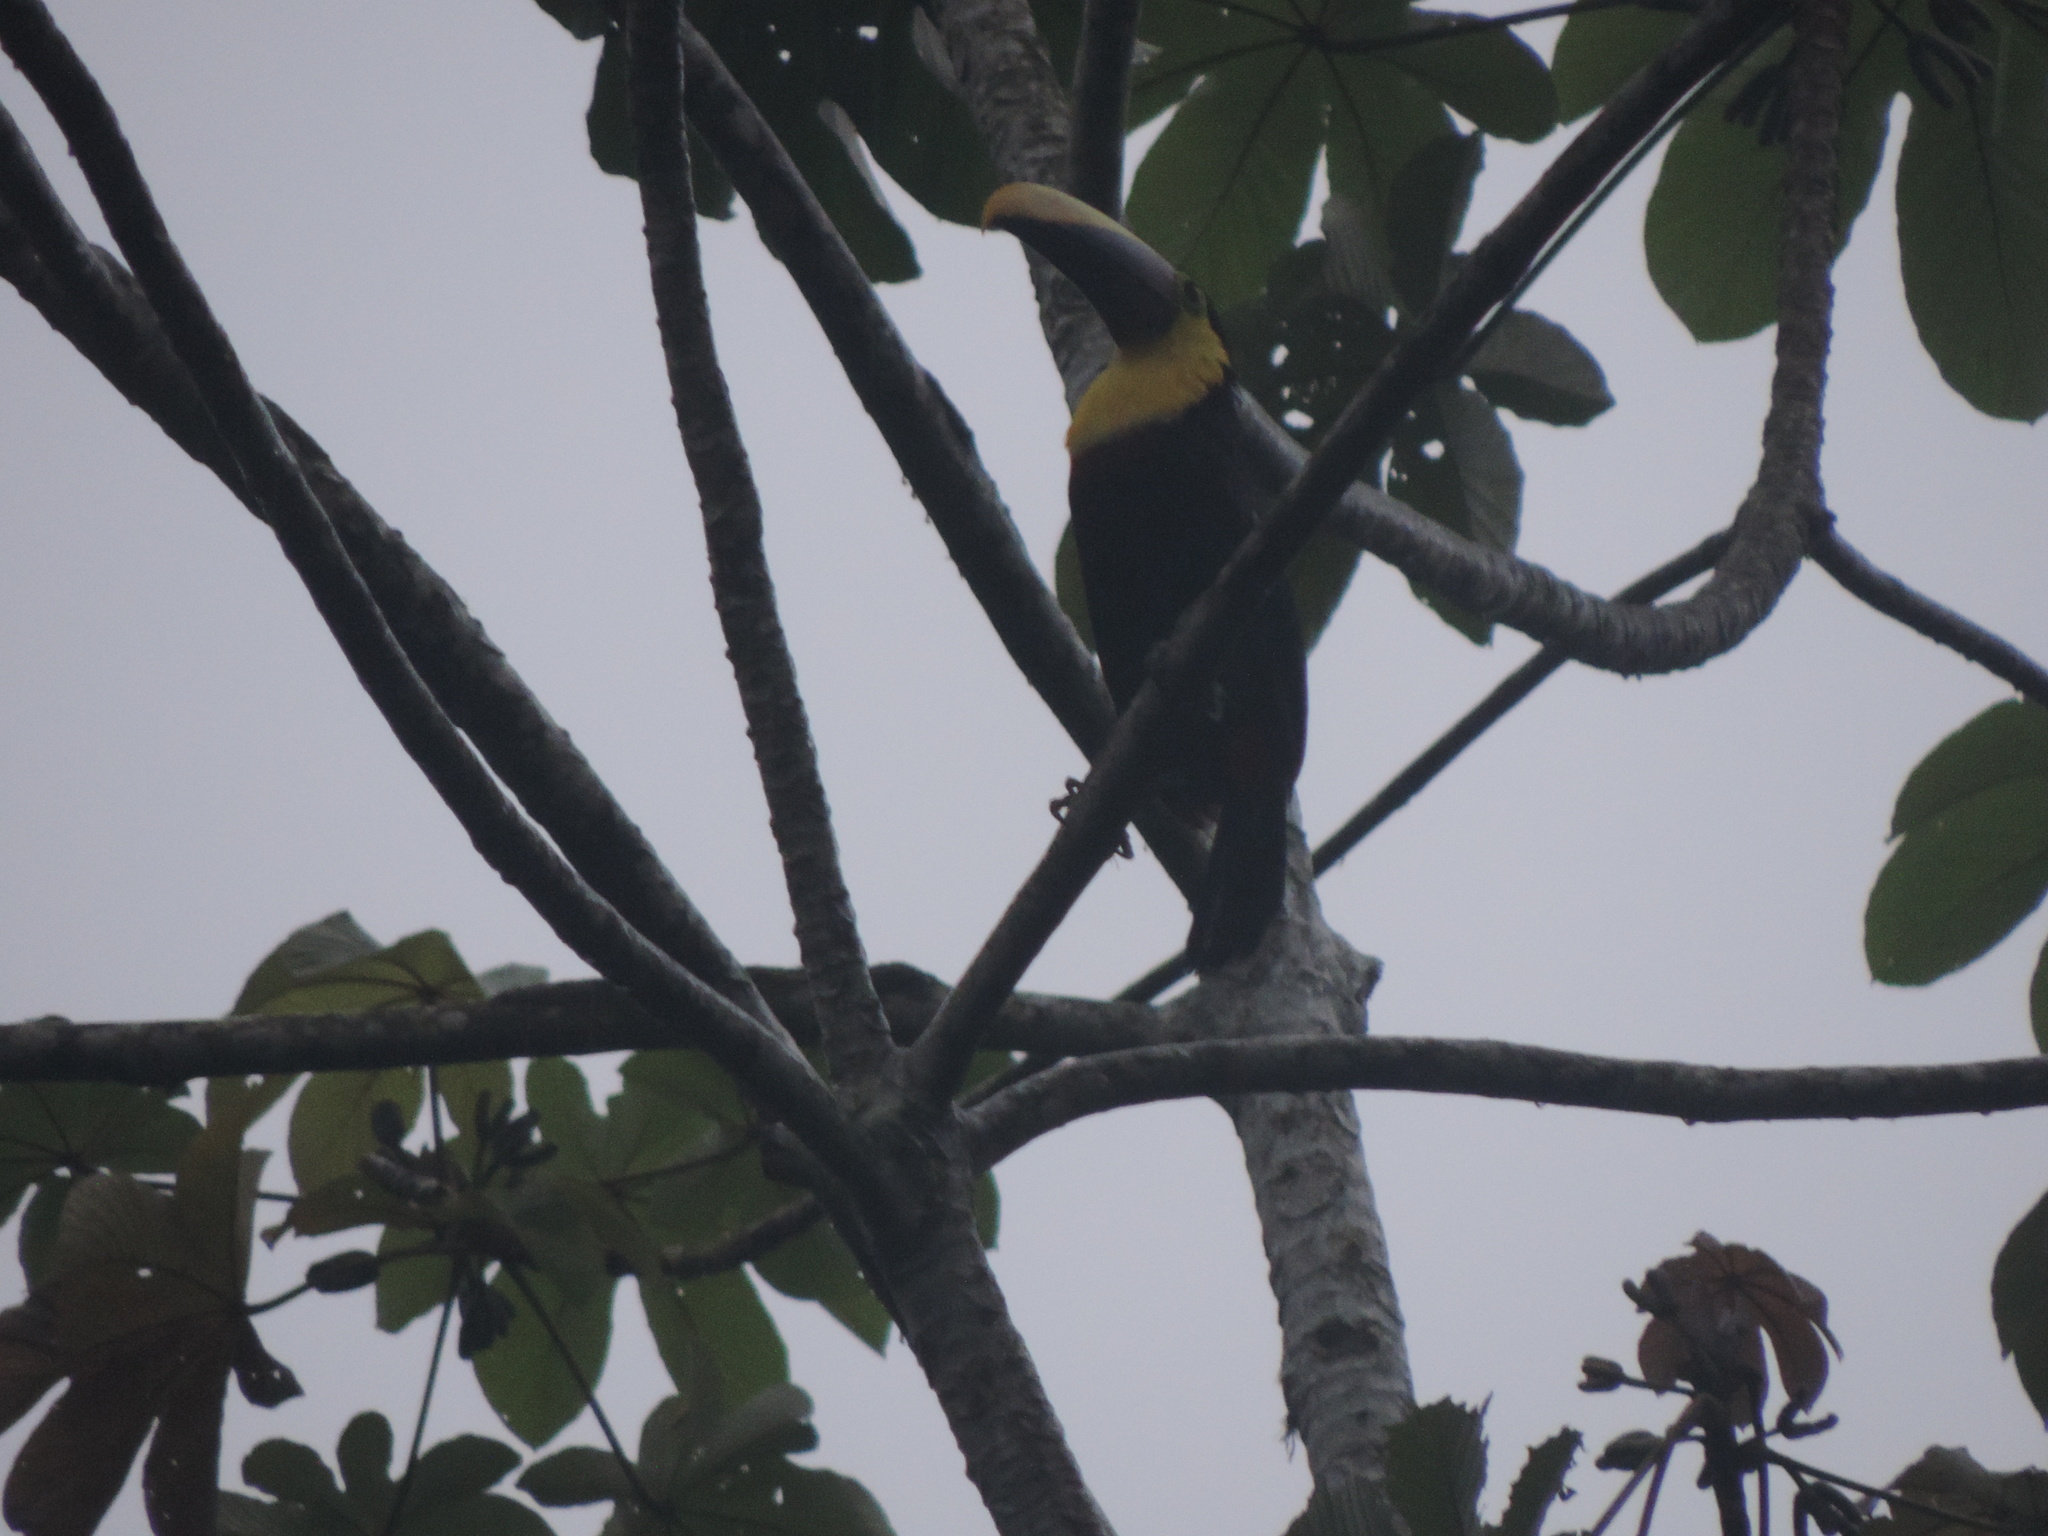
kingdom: Animalia
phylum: Chordata
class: Aves
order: Piciformes
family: Ramphastidae
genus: Ramphastos
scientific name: Ramphastos ambiguus
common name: Yellow-throated toucan
